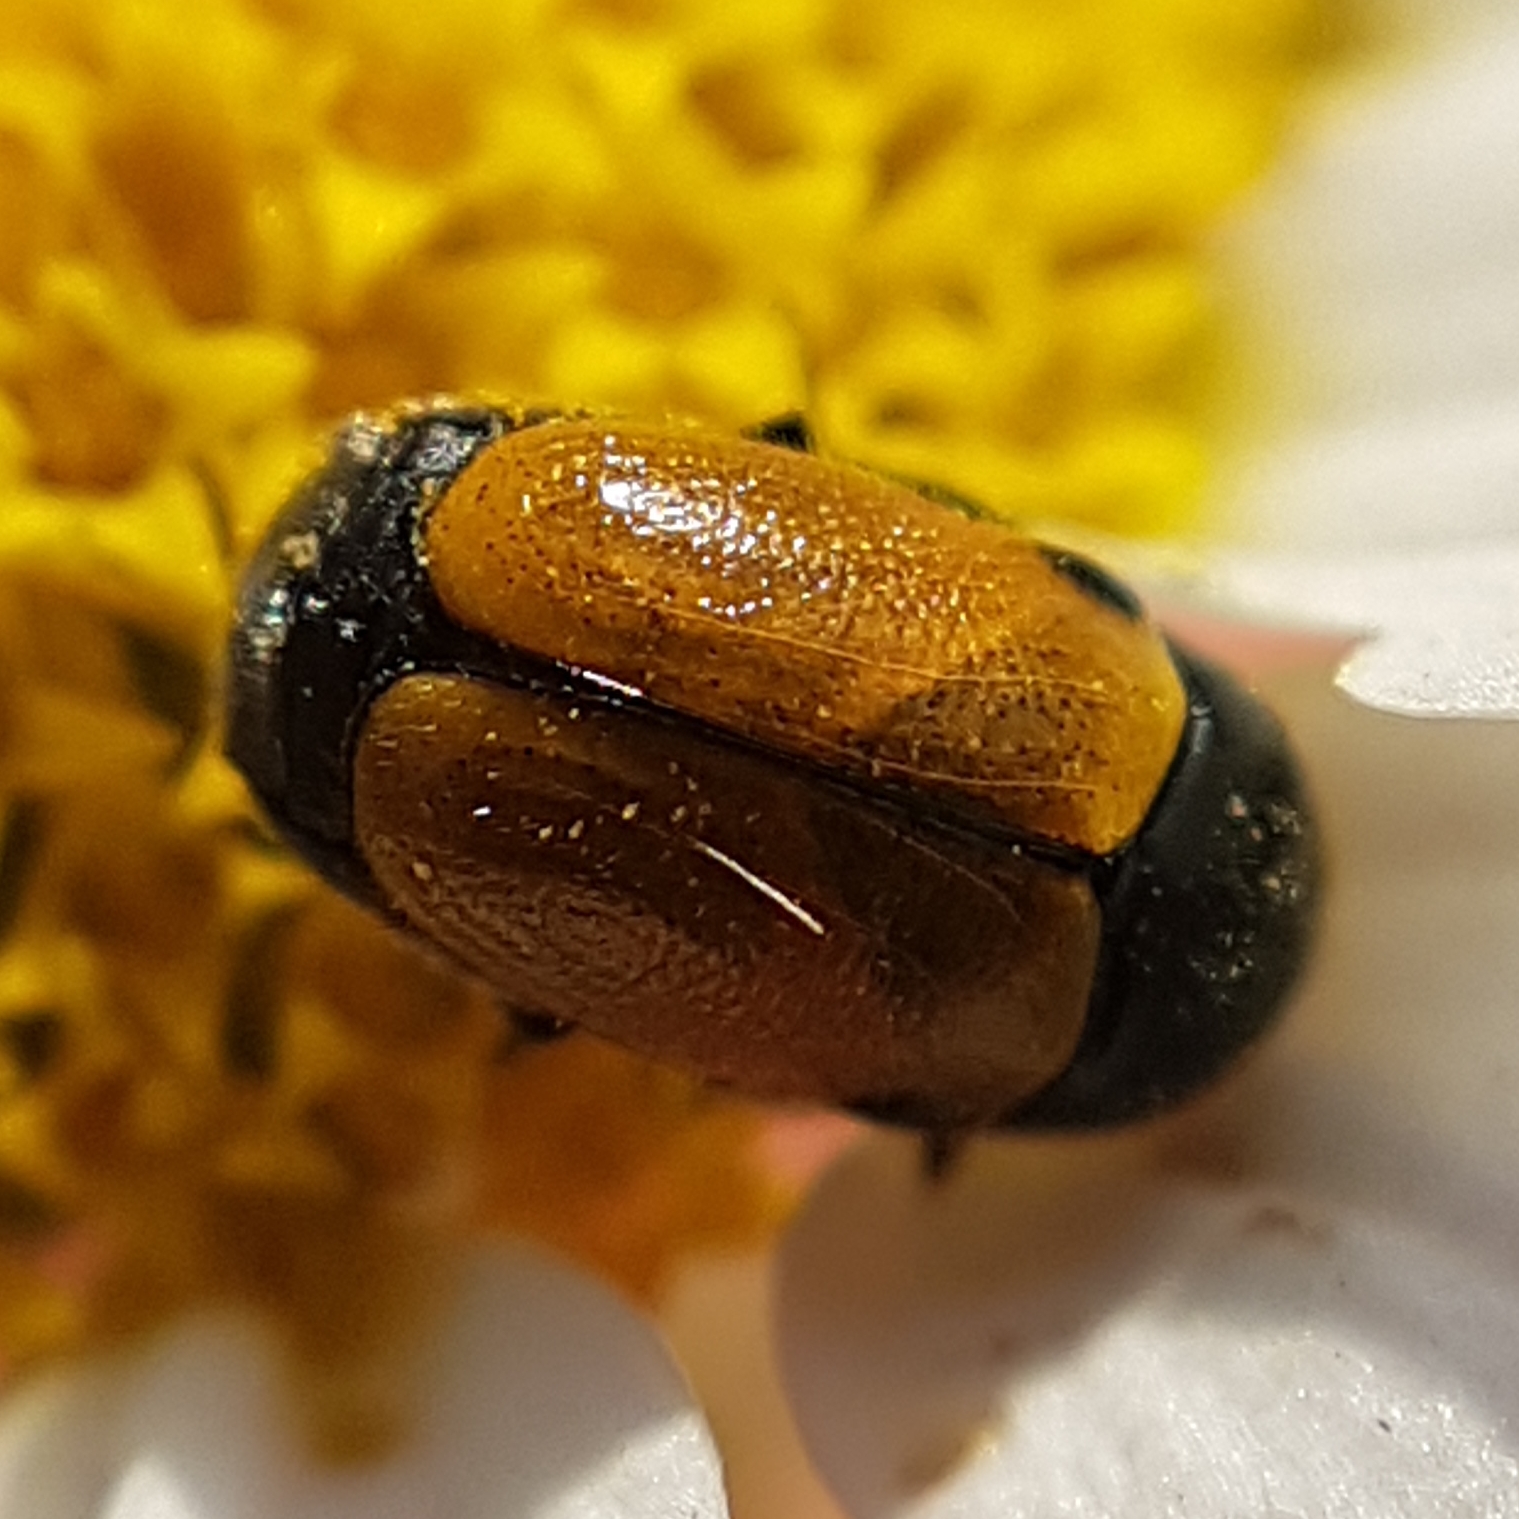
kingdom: Animalia
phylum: Arthropoda
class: Insecta
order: Coleoptera
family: Chrysomelidae
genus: Cryptocephalus
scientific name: Cryptocephalus rugicollis
